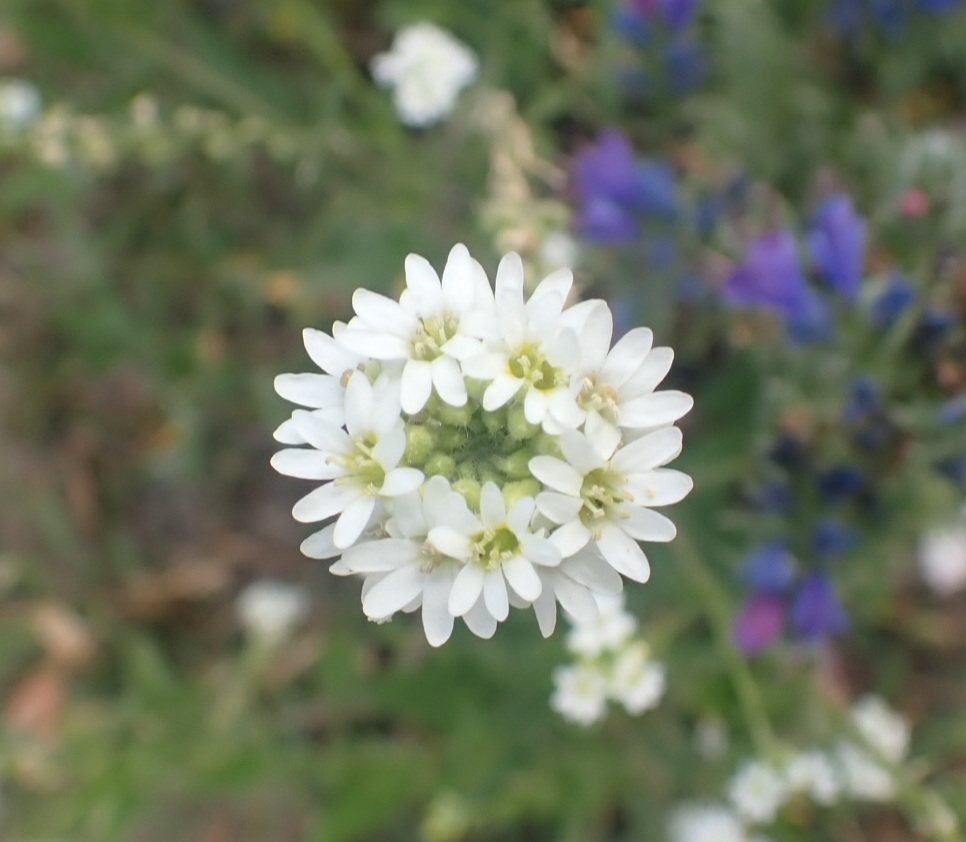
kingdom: Plantae
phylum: Tracheophyta
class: Magnoliopsida
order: Brassicales
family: Brassicaceae
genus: Berteroa
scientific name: Berteroa incana
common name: Hoary alison
